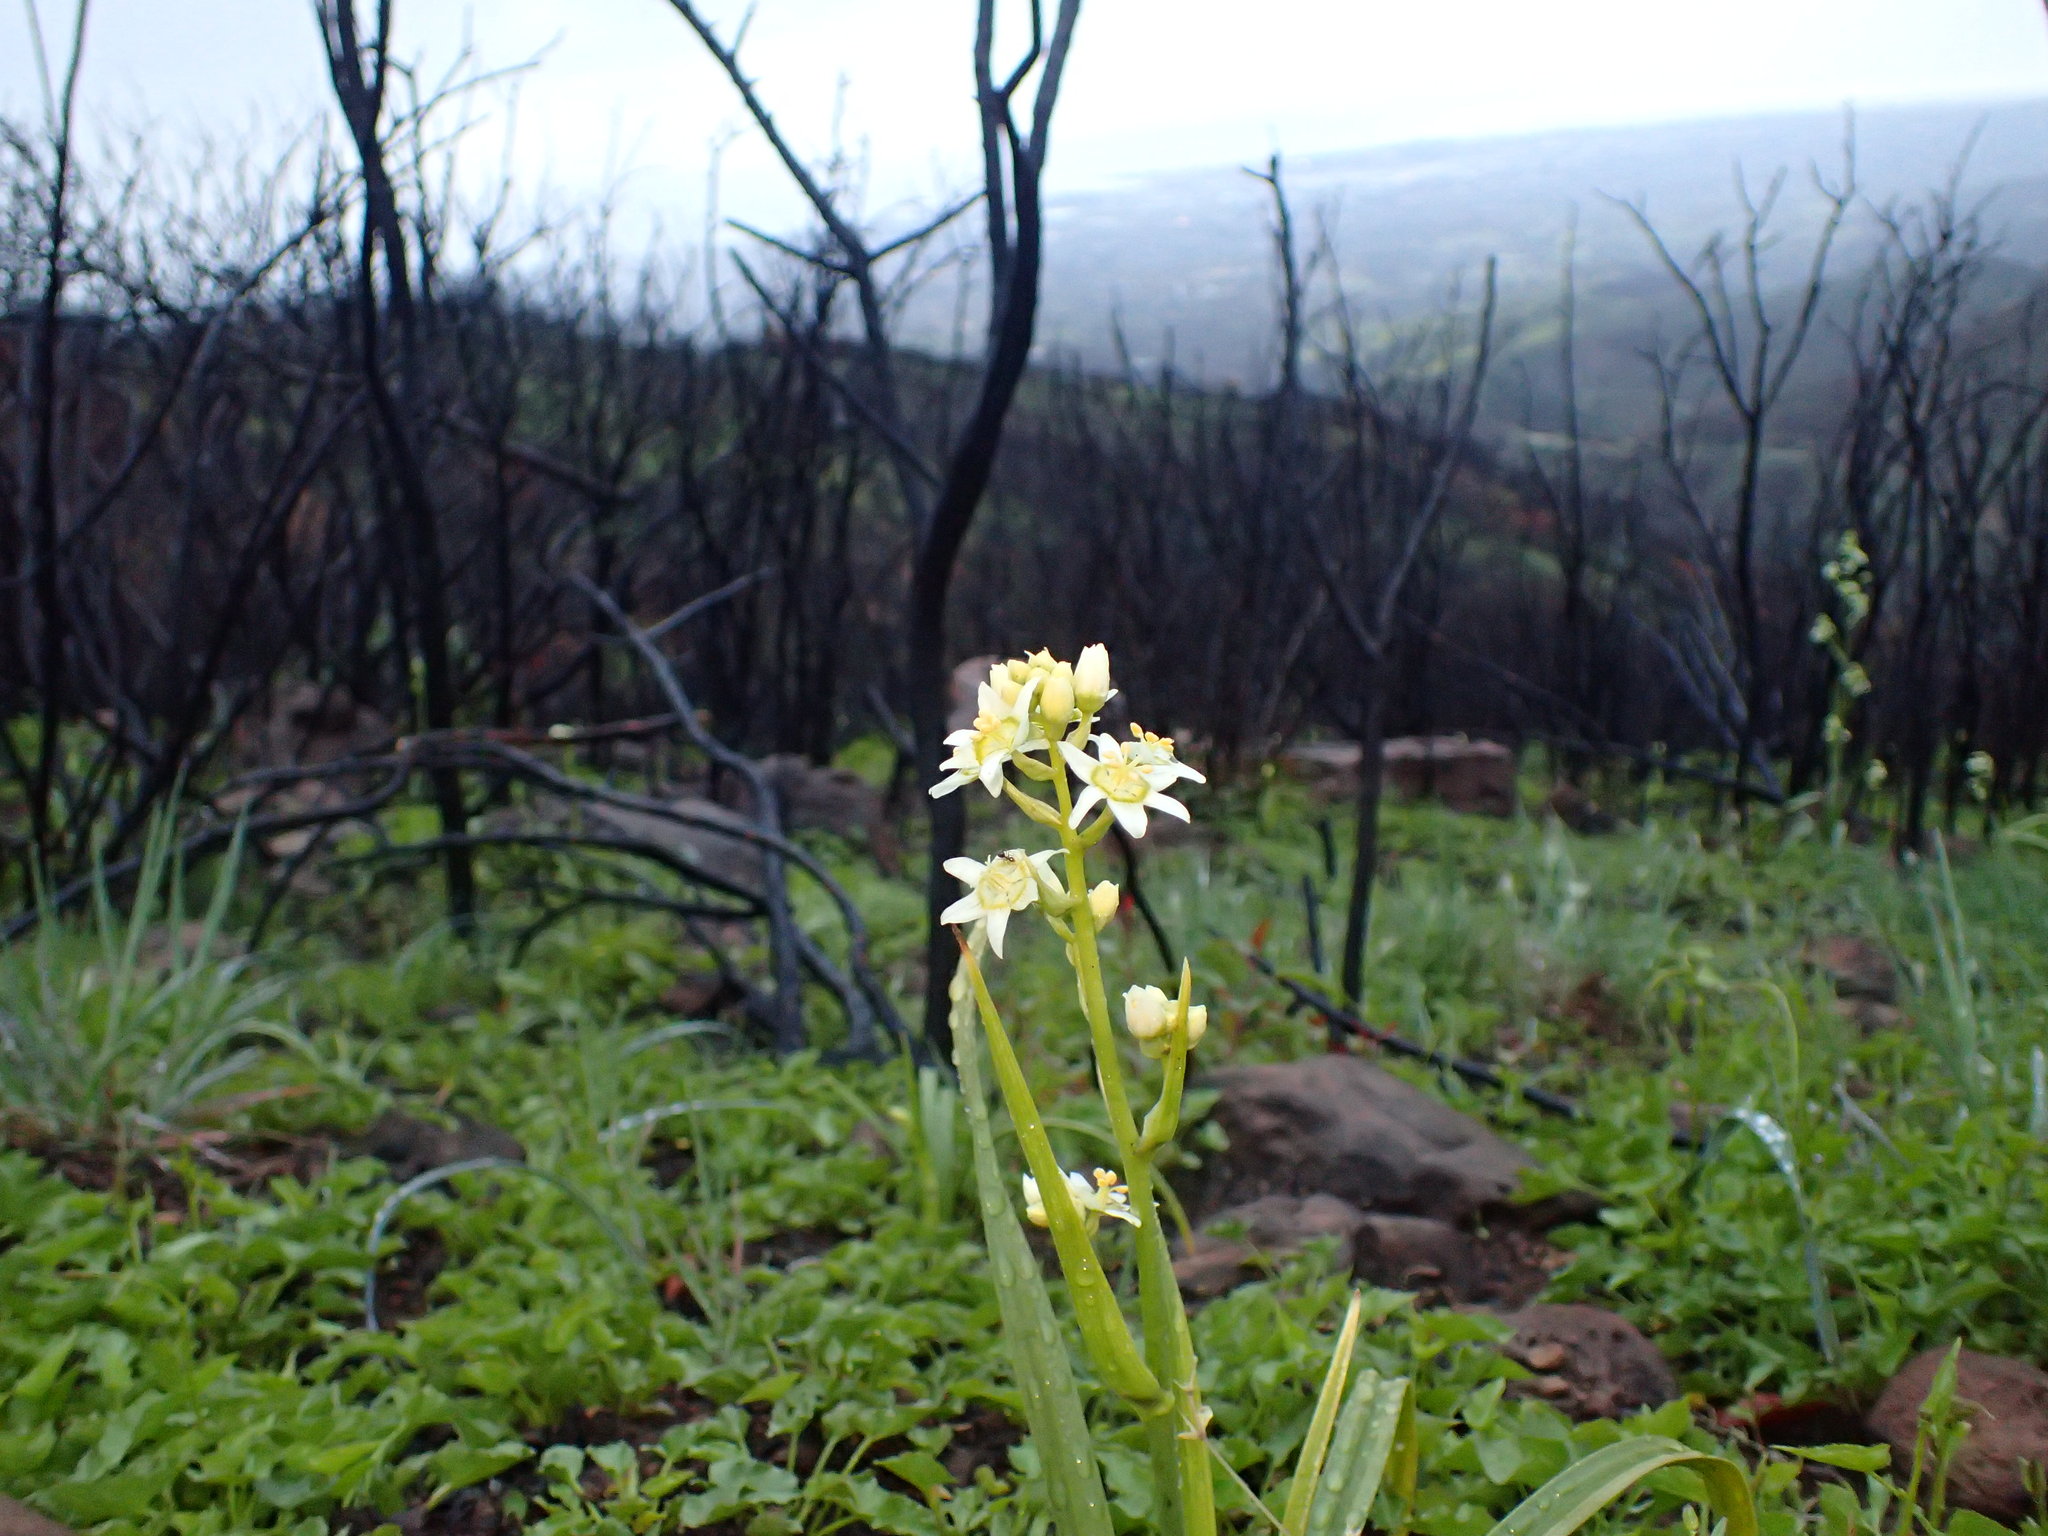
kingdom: Plantae
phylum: Tracheophyta
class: Liliopsida
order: Liliales
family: Melanthiaceae
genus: Toxicoscordion
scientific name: Toxicoscordion fremontii
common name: Fremont's death camas
